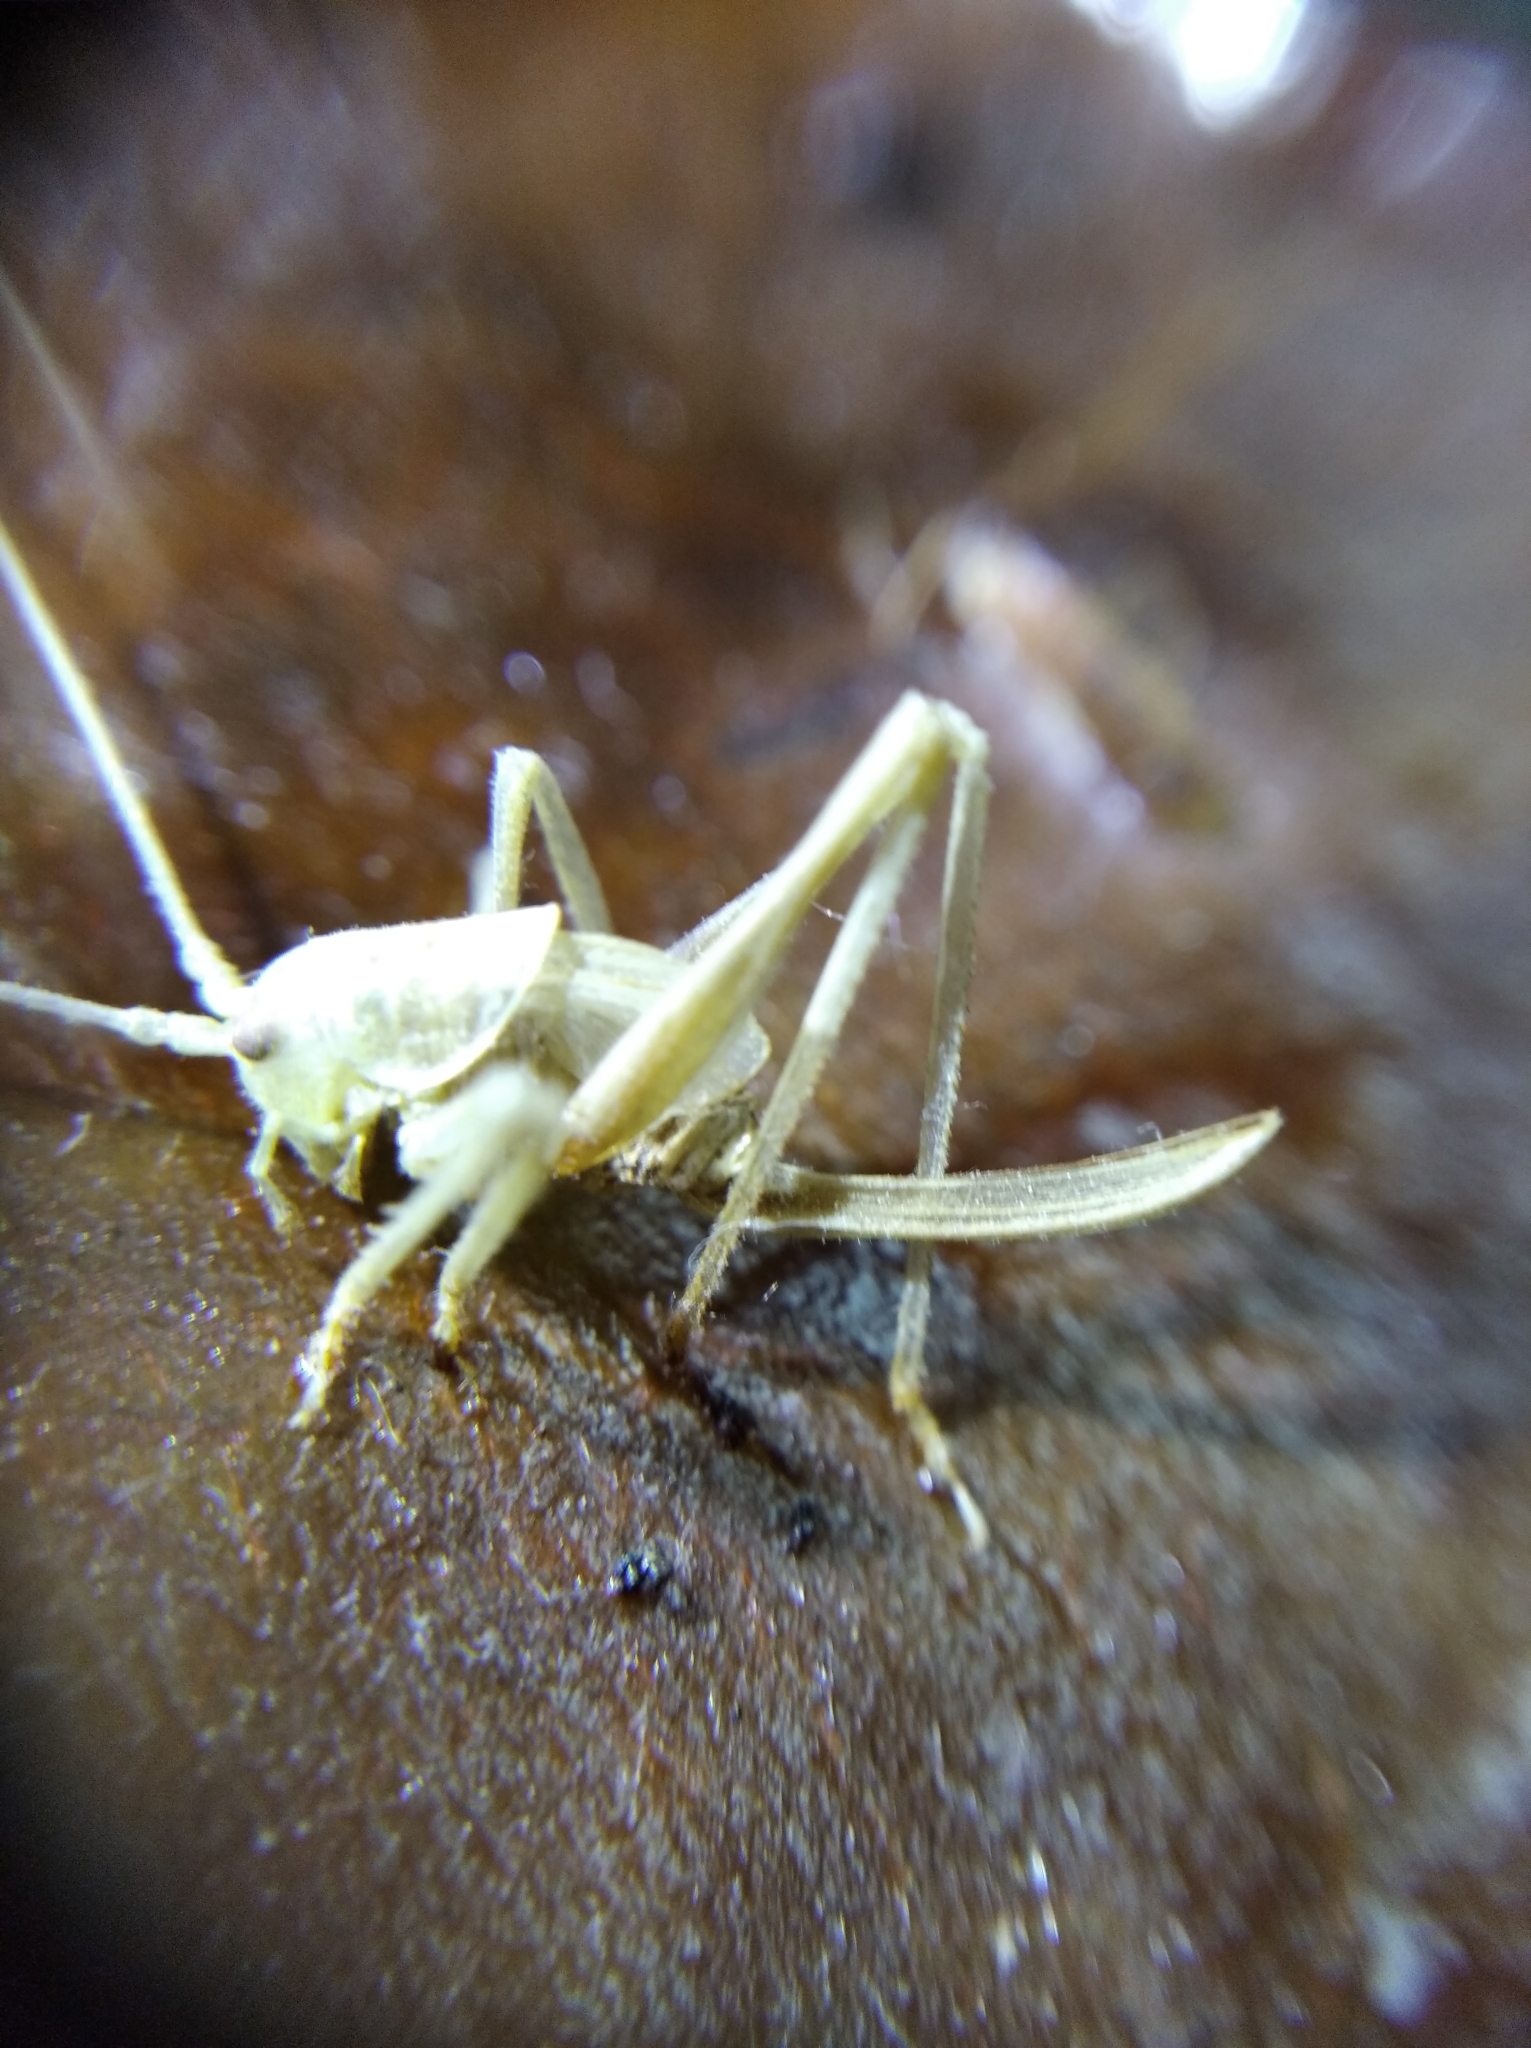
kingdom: Animalia
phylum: Arthropoda
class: Insecta
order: Orthoptera
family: Tettigoniidae
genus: Meconema
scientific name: Meconema thalassinum
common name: Oak bush-cricket
